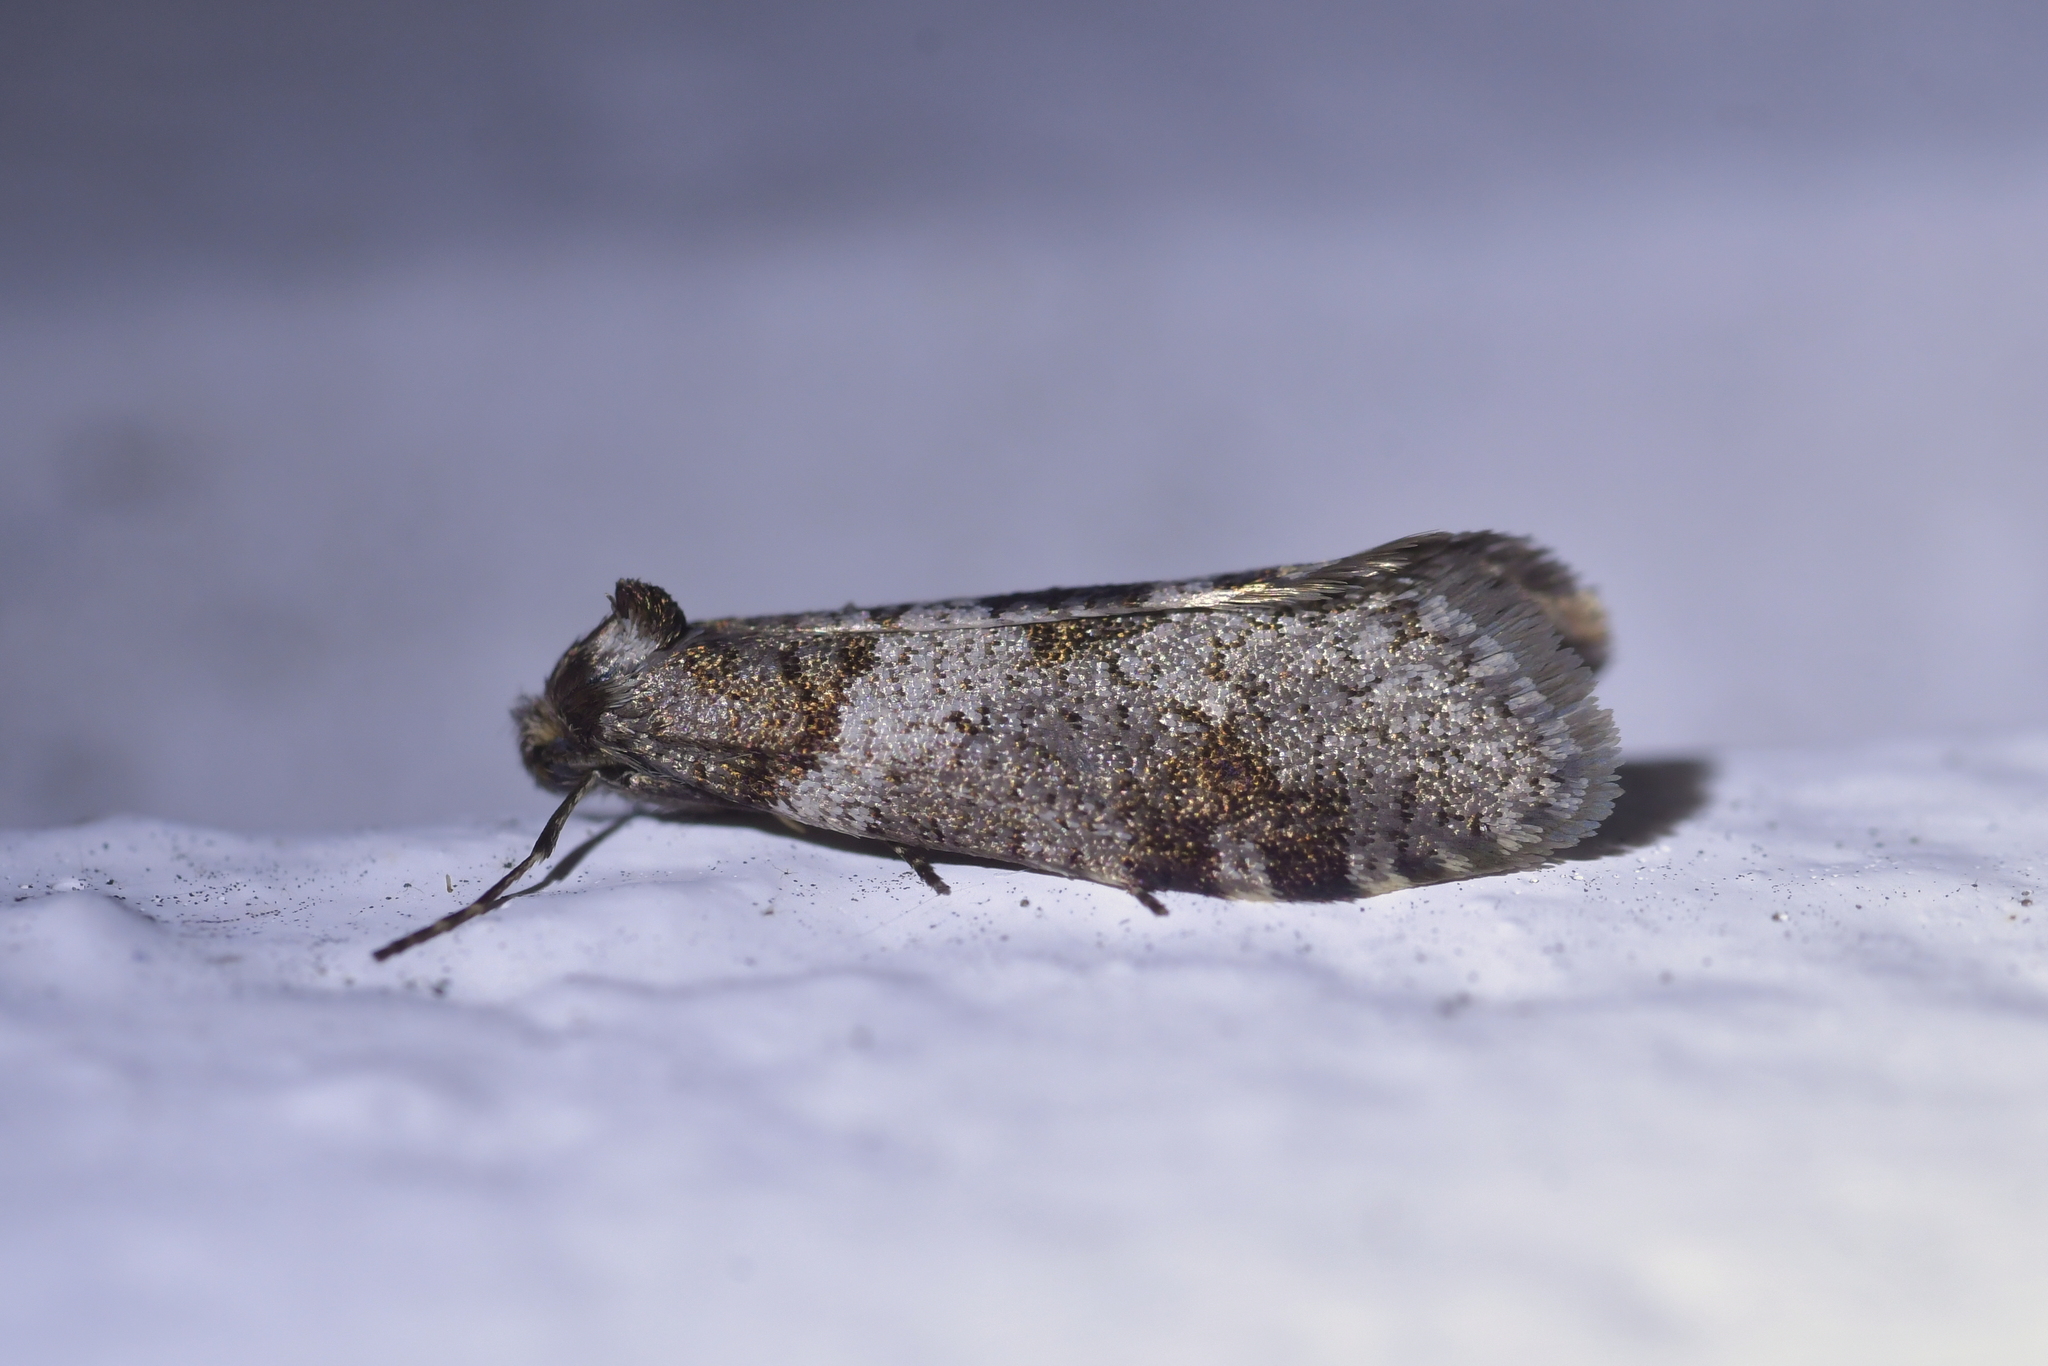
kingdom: Animalia
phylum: Arthropoda
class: Insecta
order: Lepidoptera
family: Psychidae
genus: Lepidoscia
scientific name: Lepidoscia heliochares
